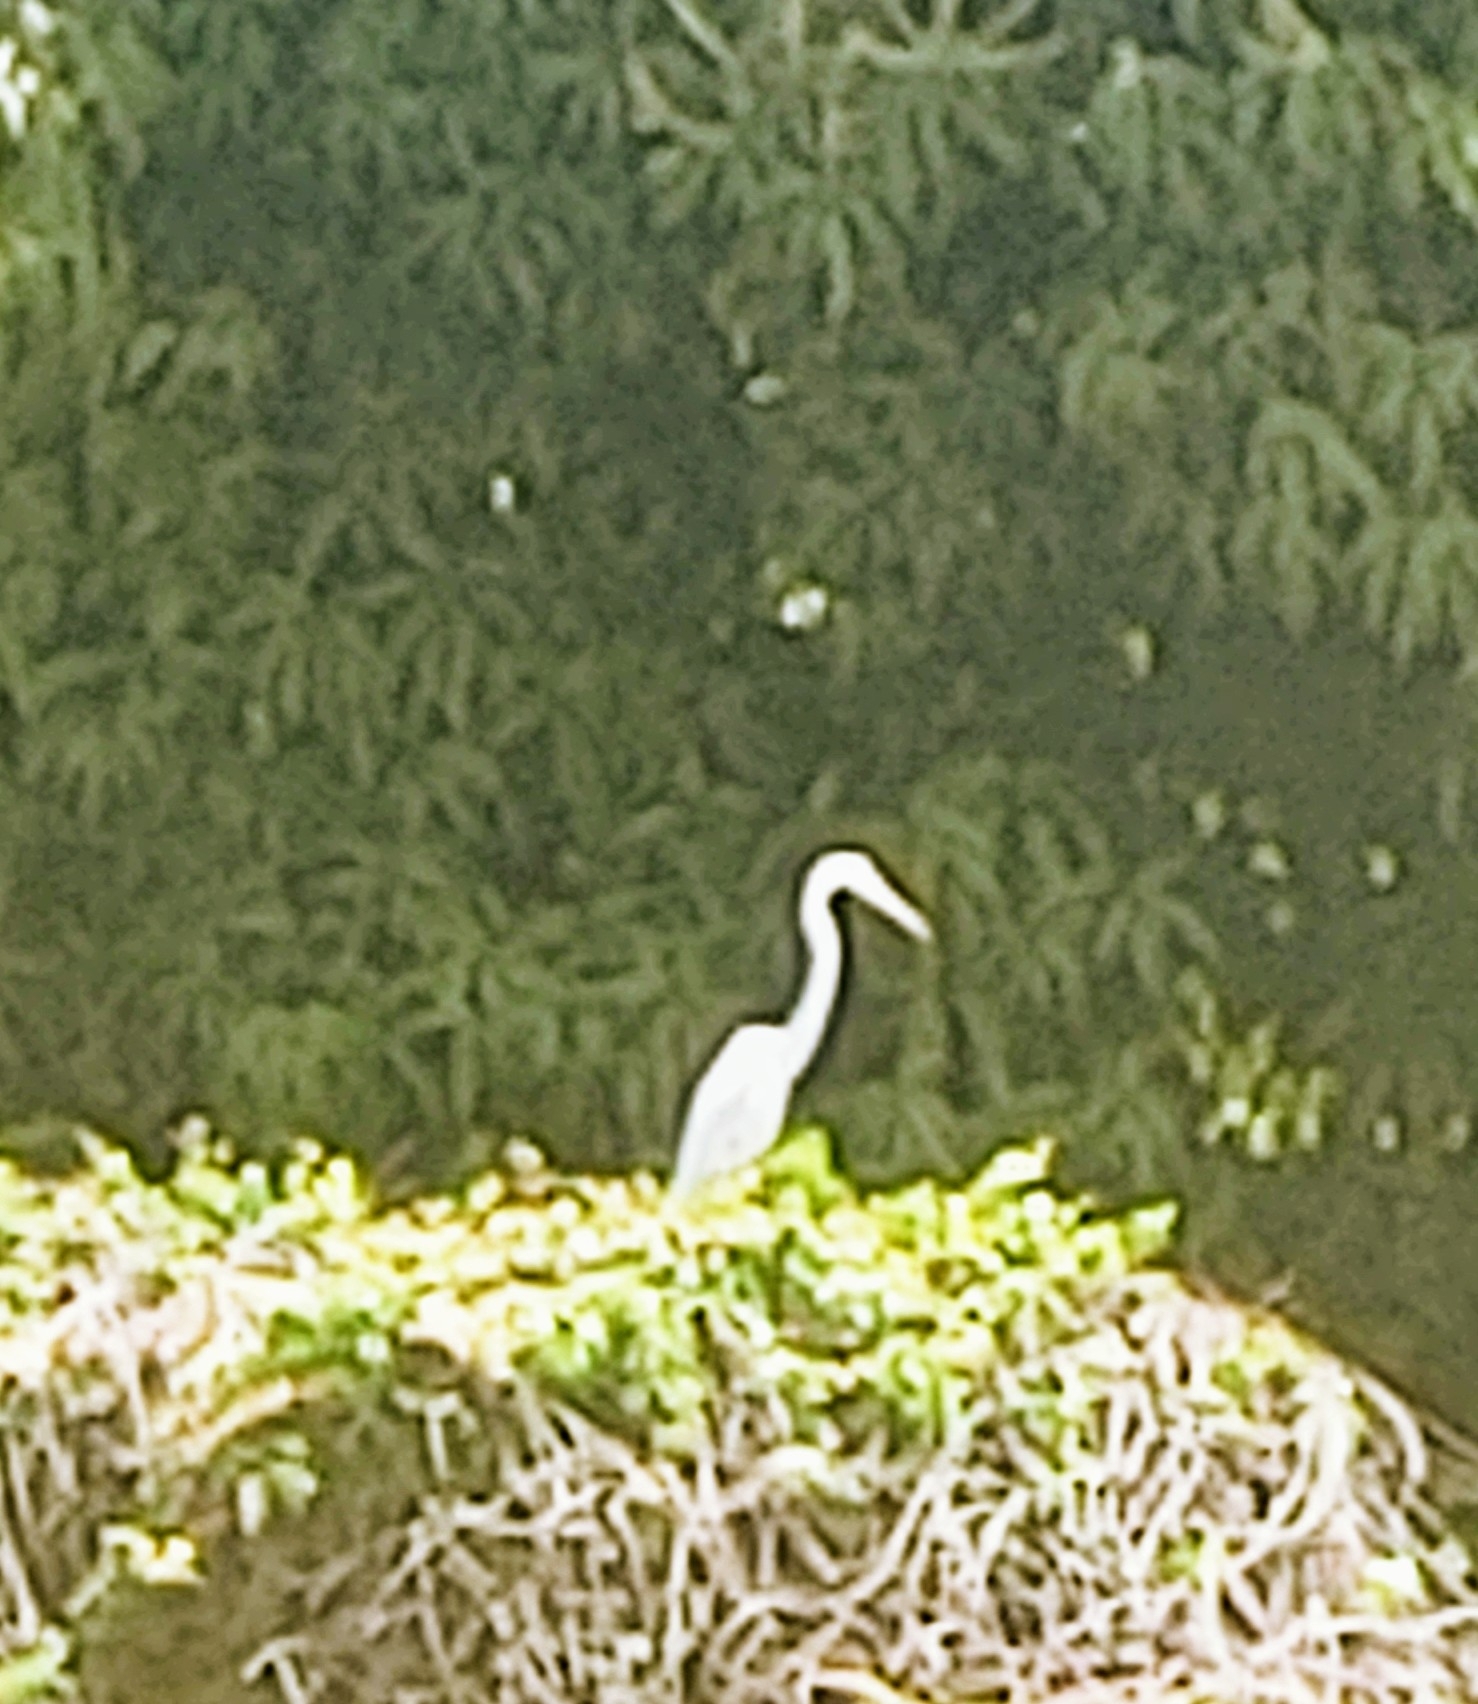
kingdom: Animalia
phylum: Chordata
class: Aves
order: Pelecaniformes
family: Ardeidae
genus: Ardea
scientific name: Ardea alba
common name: Great egret
